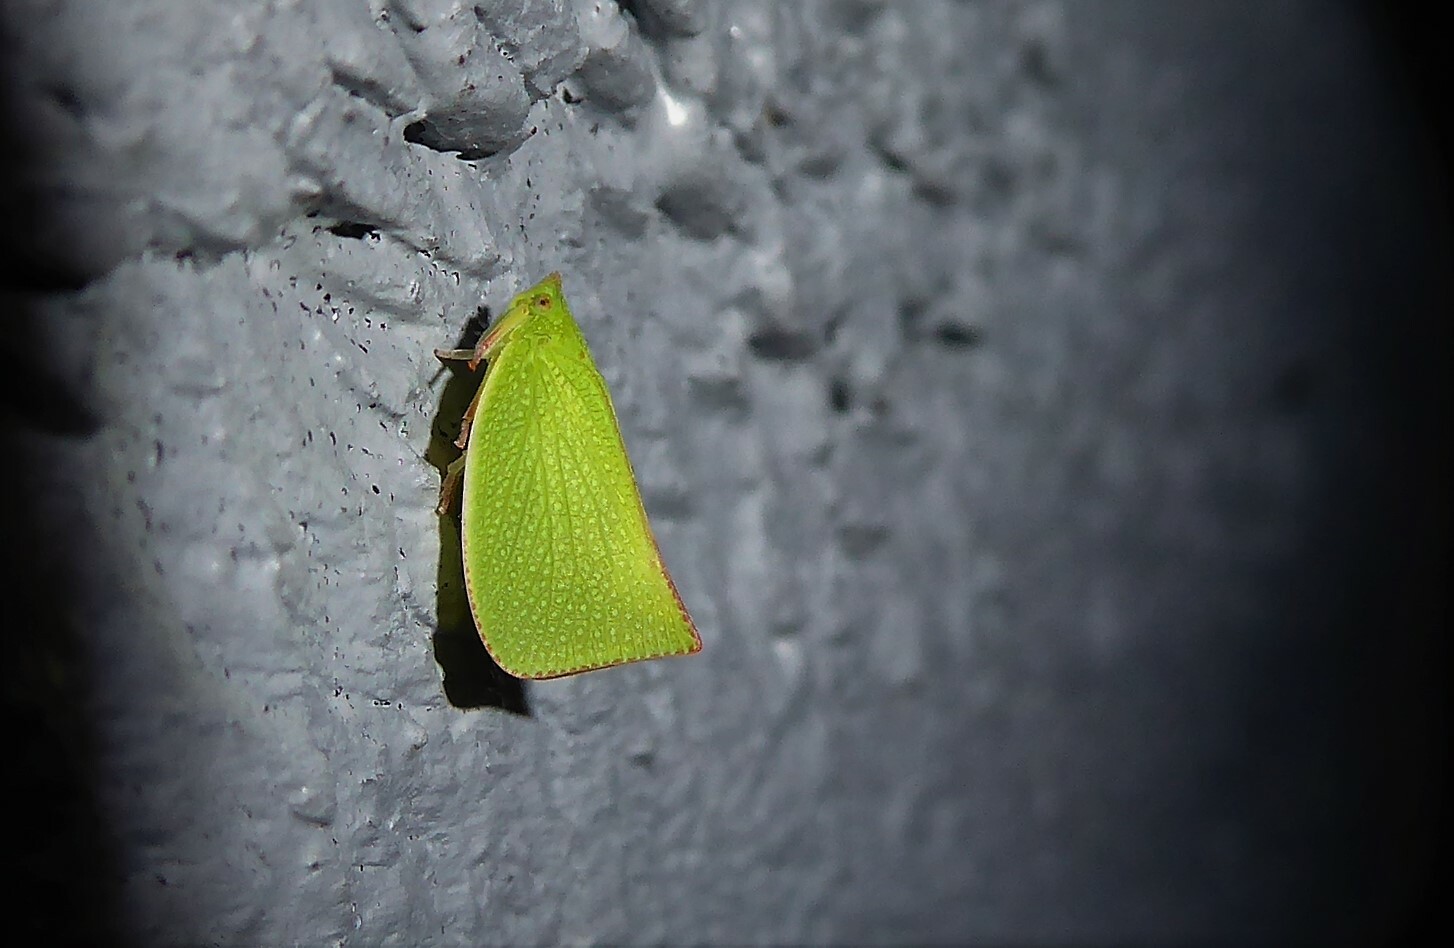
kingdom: Animalia
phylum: Arthropoda
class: Insecta
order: Hemiptera
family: Flatidae
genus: Siphanta
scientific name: Siphanta acuta
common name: Torpedo bug
